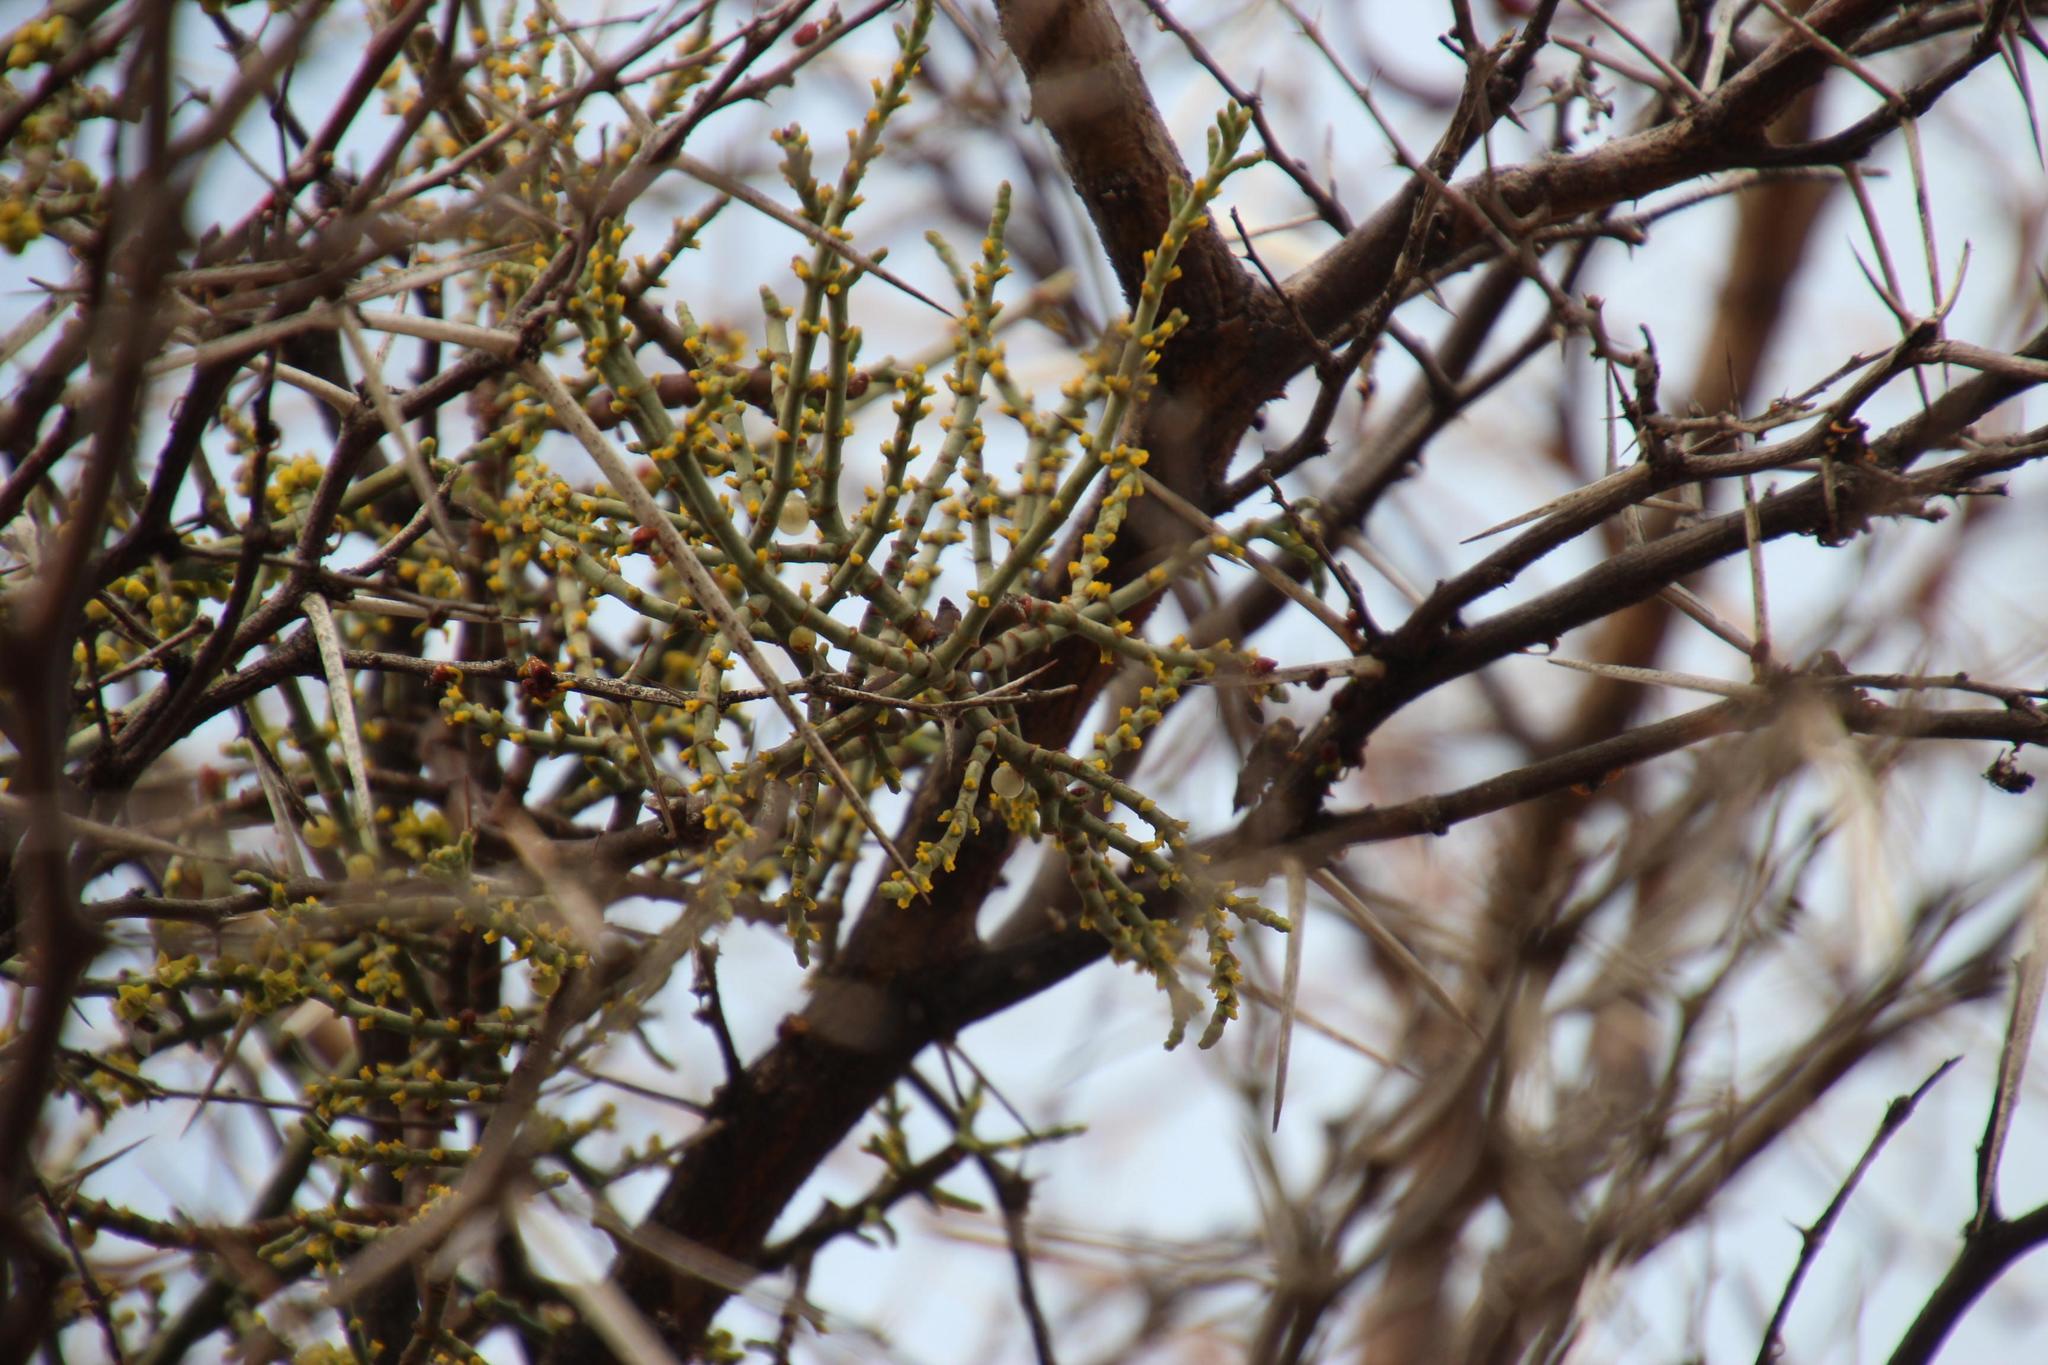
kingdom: Plantae
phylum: Tracheophyta
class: Magnoliopsida
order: Santalales
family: Viscaceae
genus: Viscum
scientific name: Viscum capense
